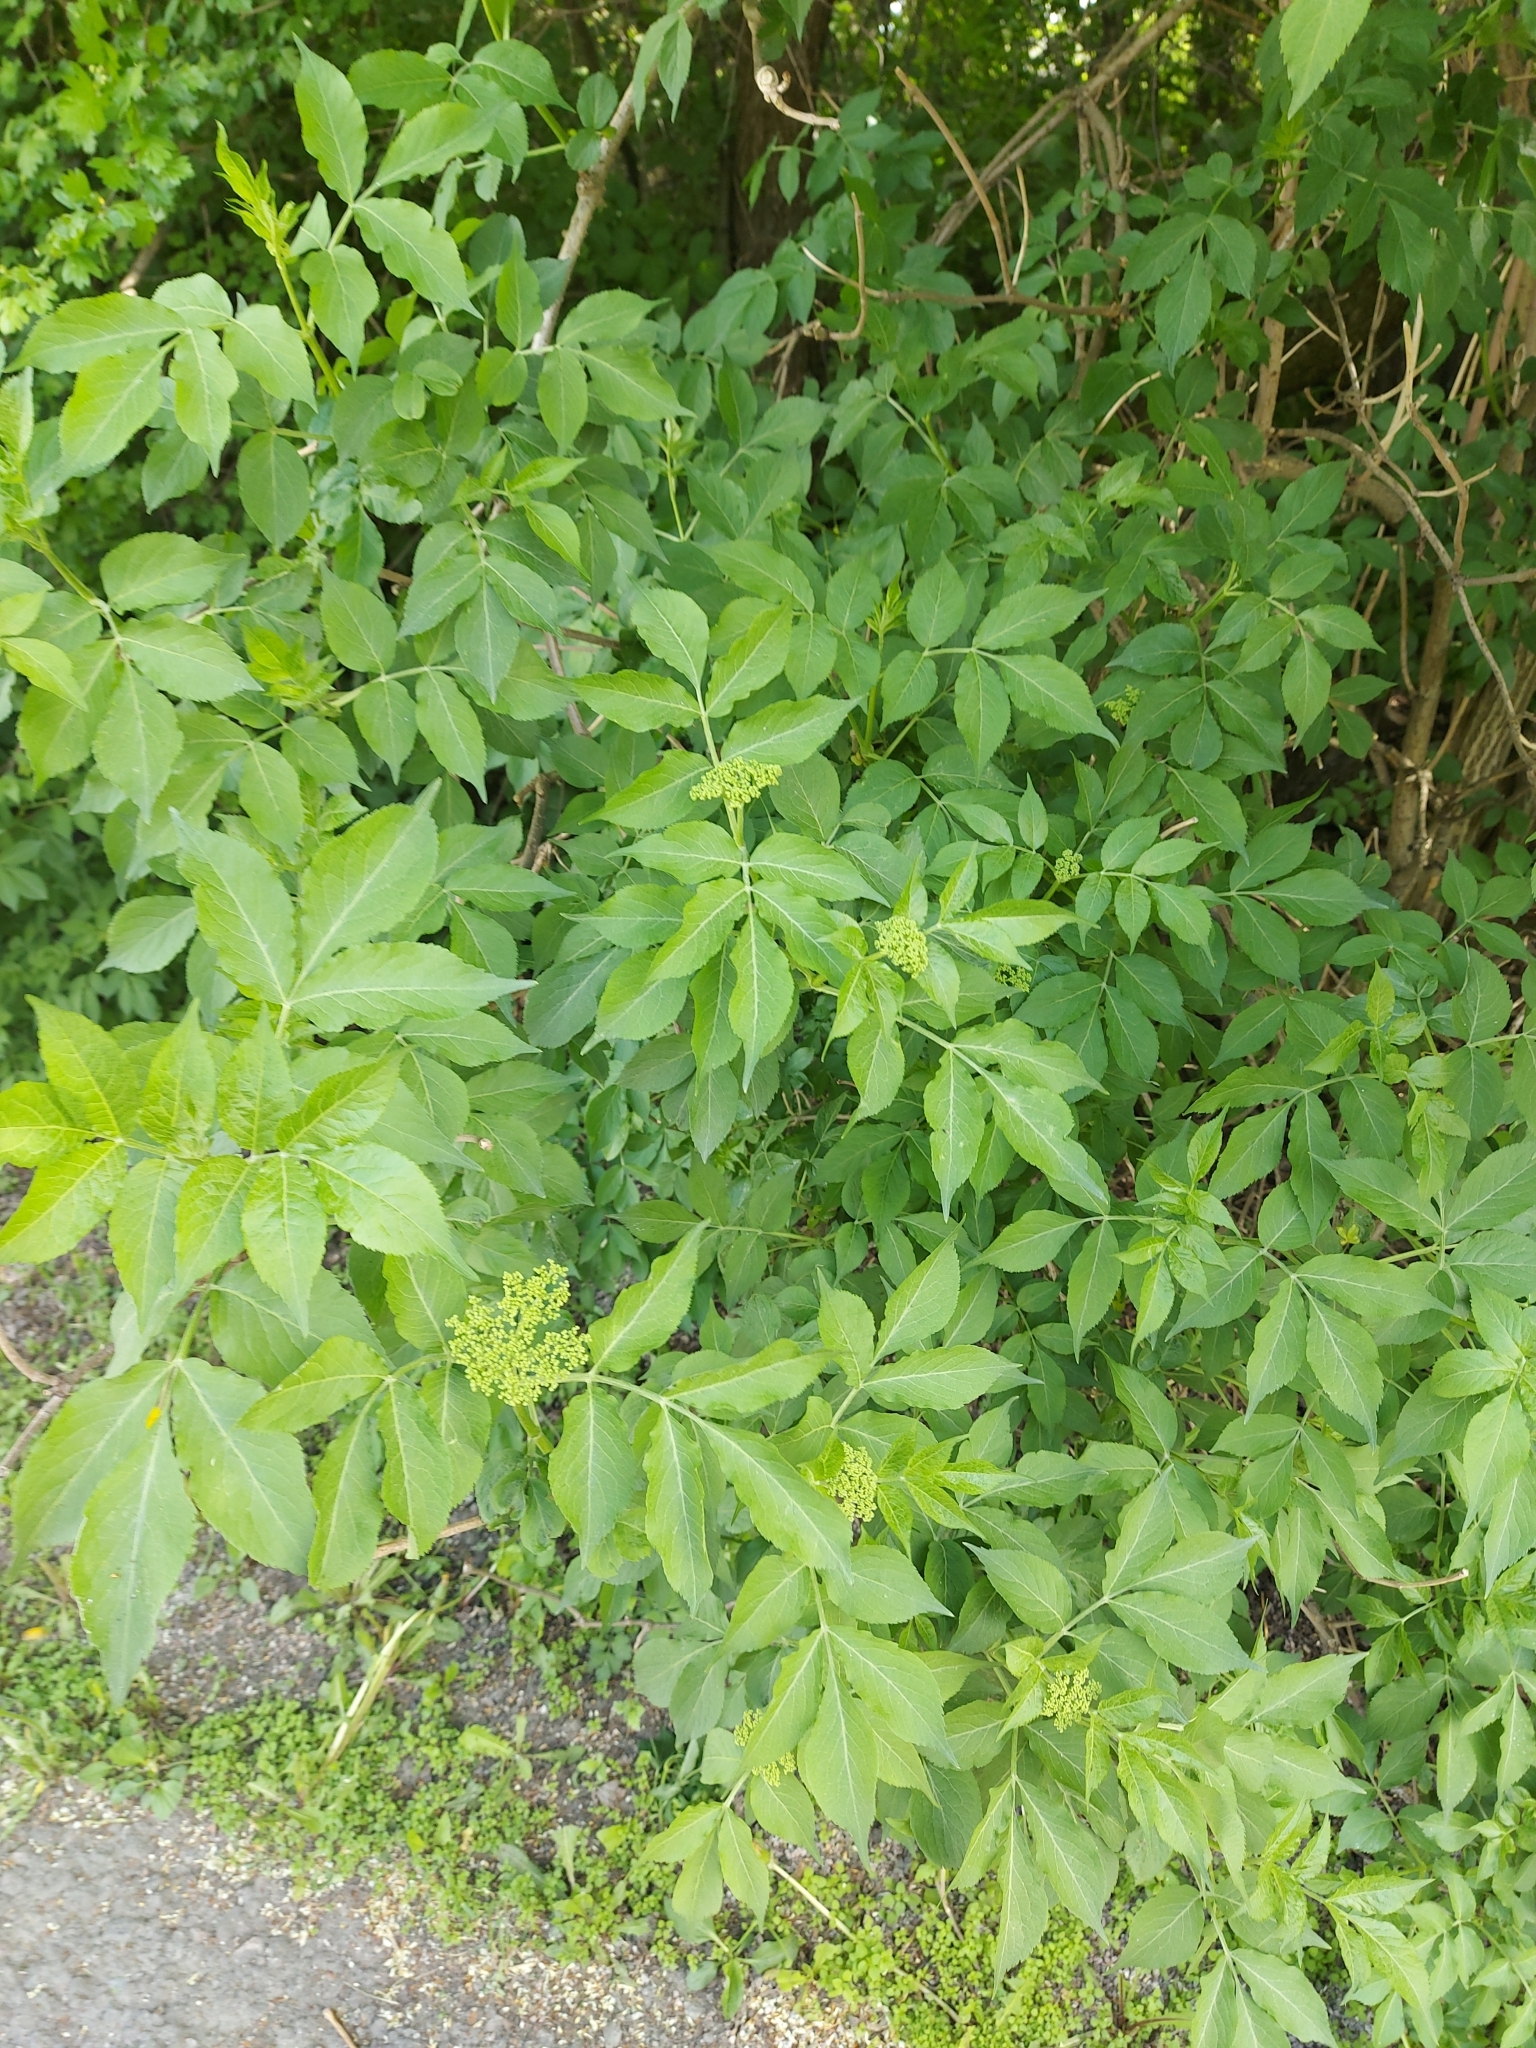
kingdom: Plantae
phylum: Tracheophyta
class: Magnoliopsida
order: Dipsacales
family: Viburnaceae
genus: Sambucus
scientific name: Sambucus nigra
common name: Elder
